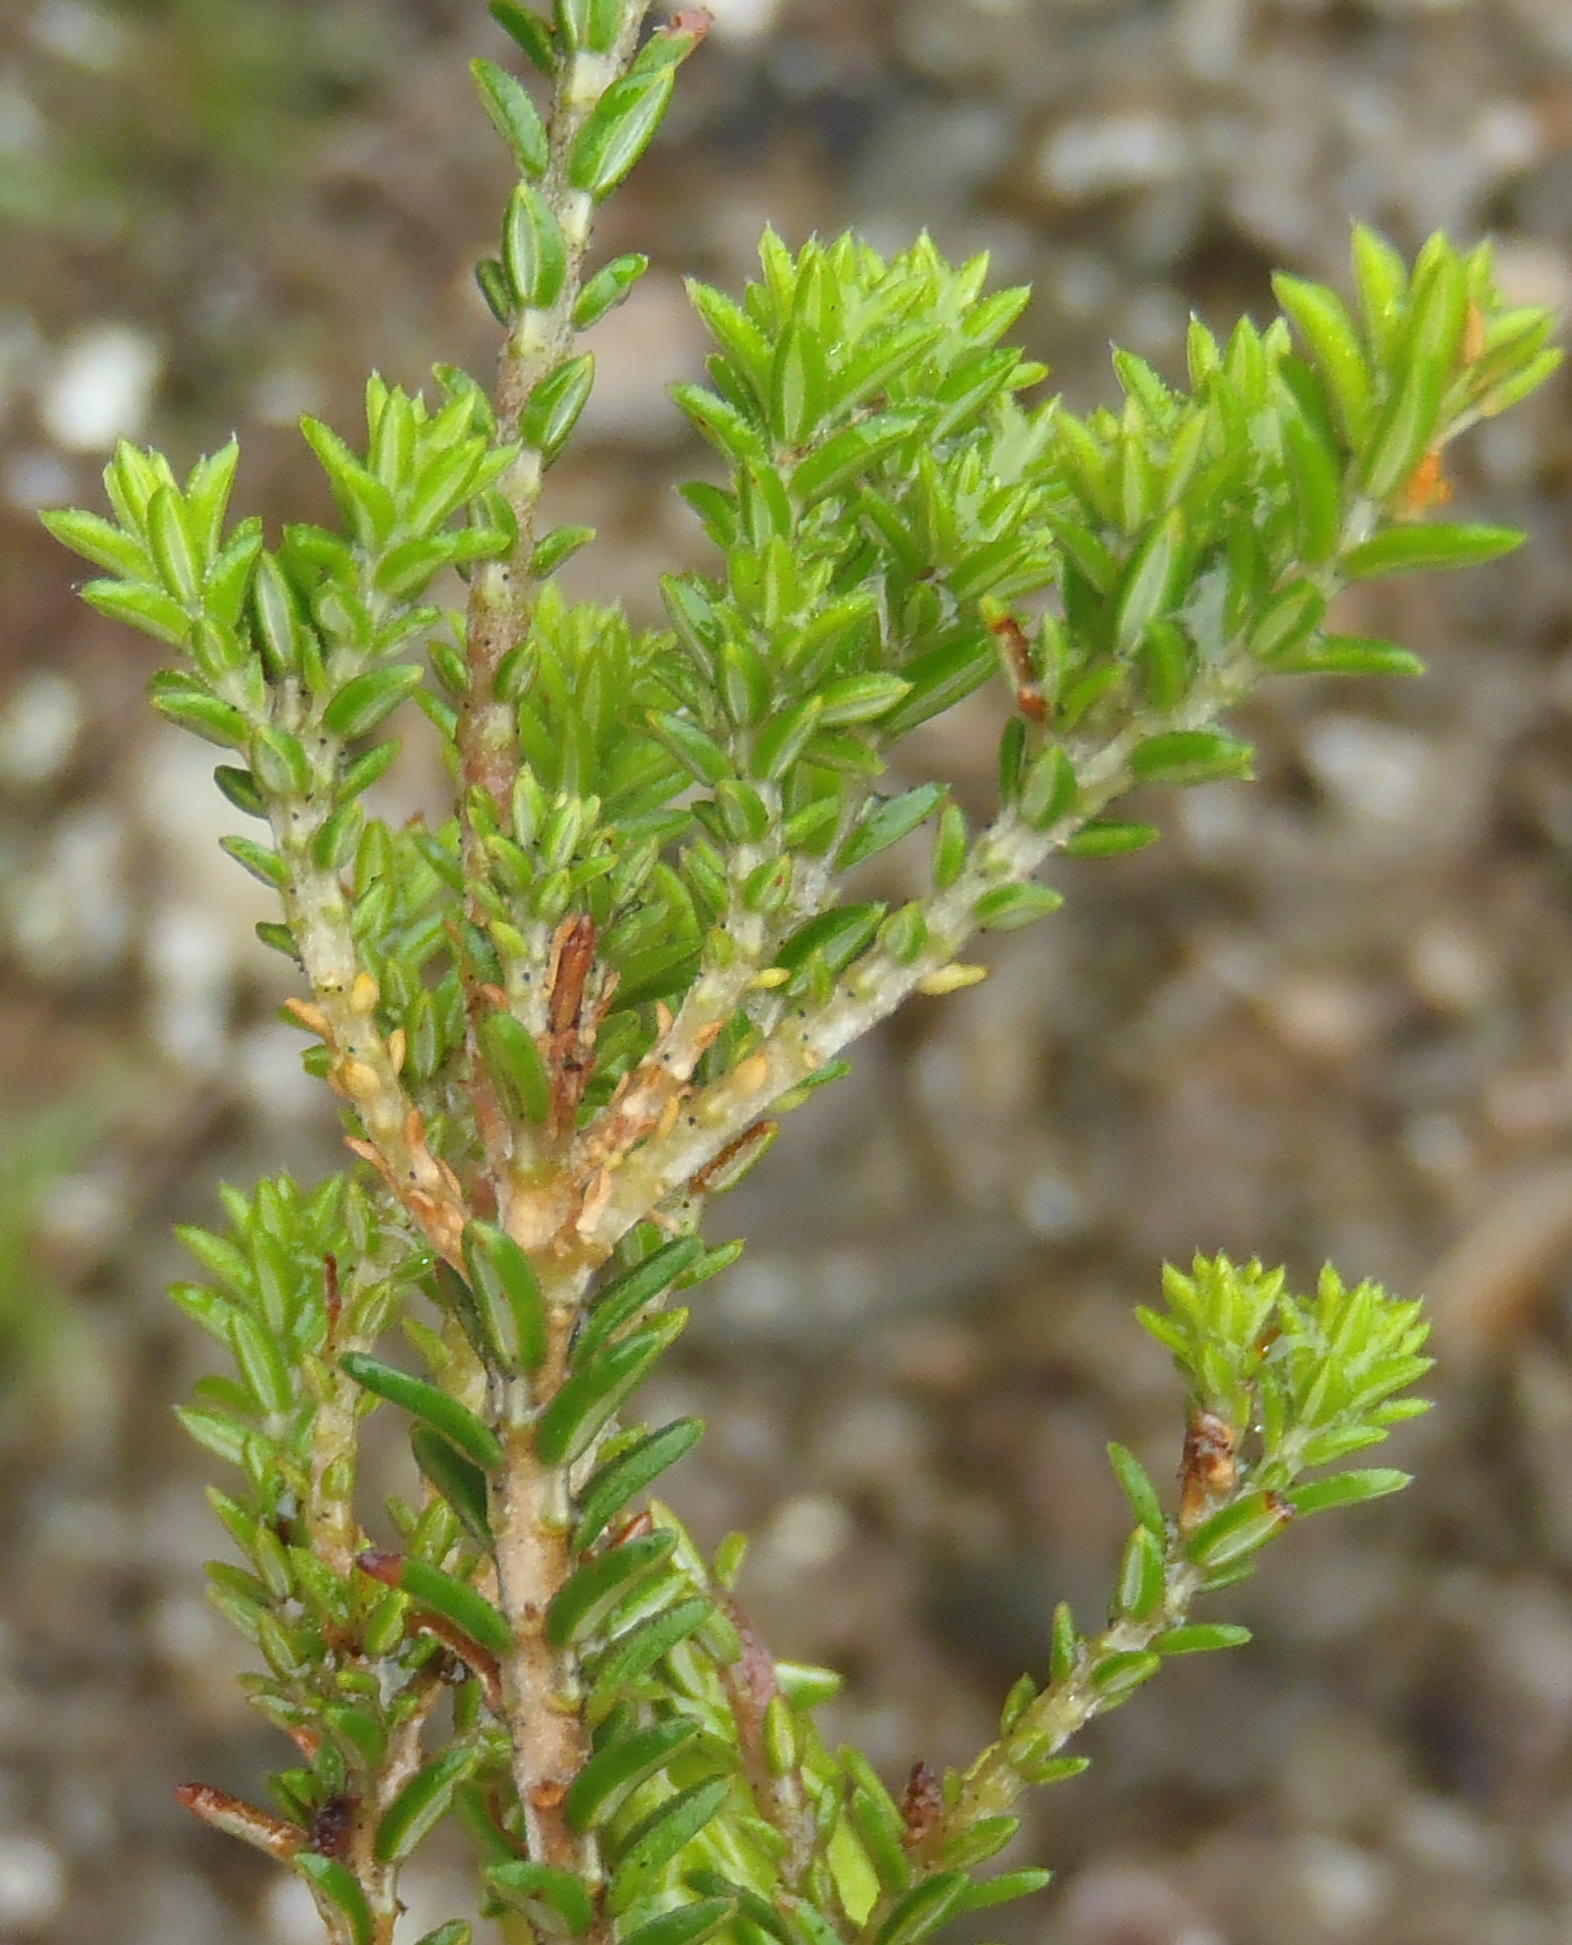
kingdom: Plantae
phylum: Tracheophyta
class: Magnoliopsida
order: Ericales
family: Ericaceae
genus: Erica
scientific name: Erica viridiflora
